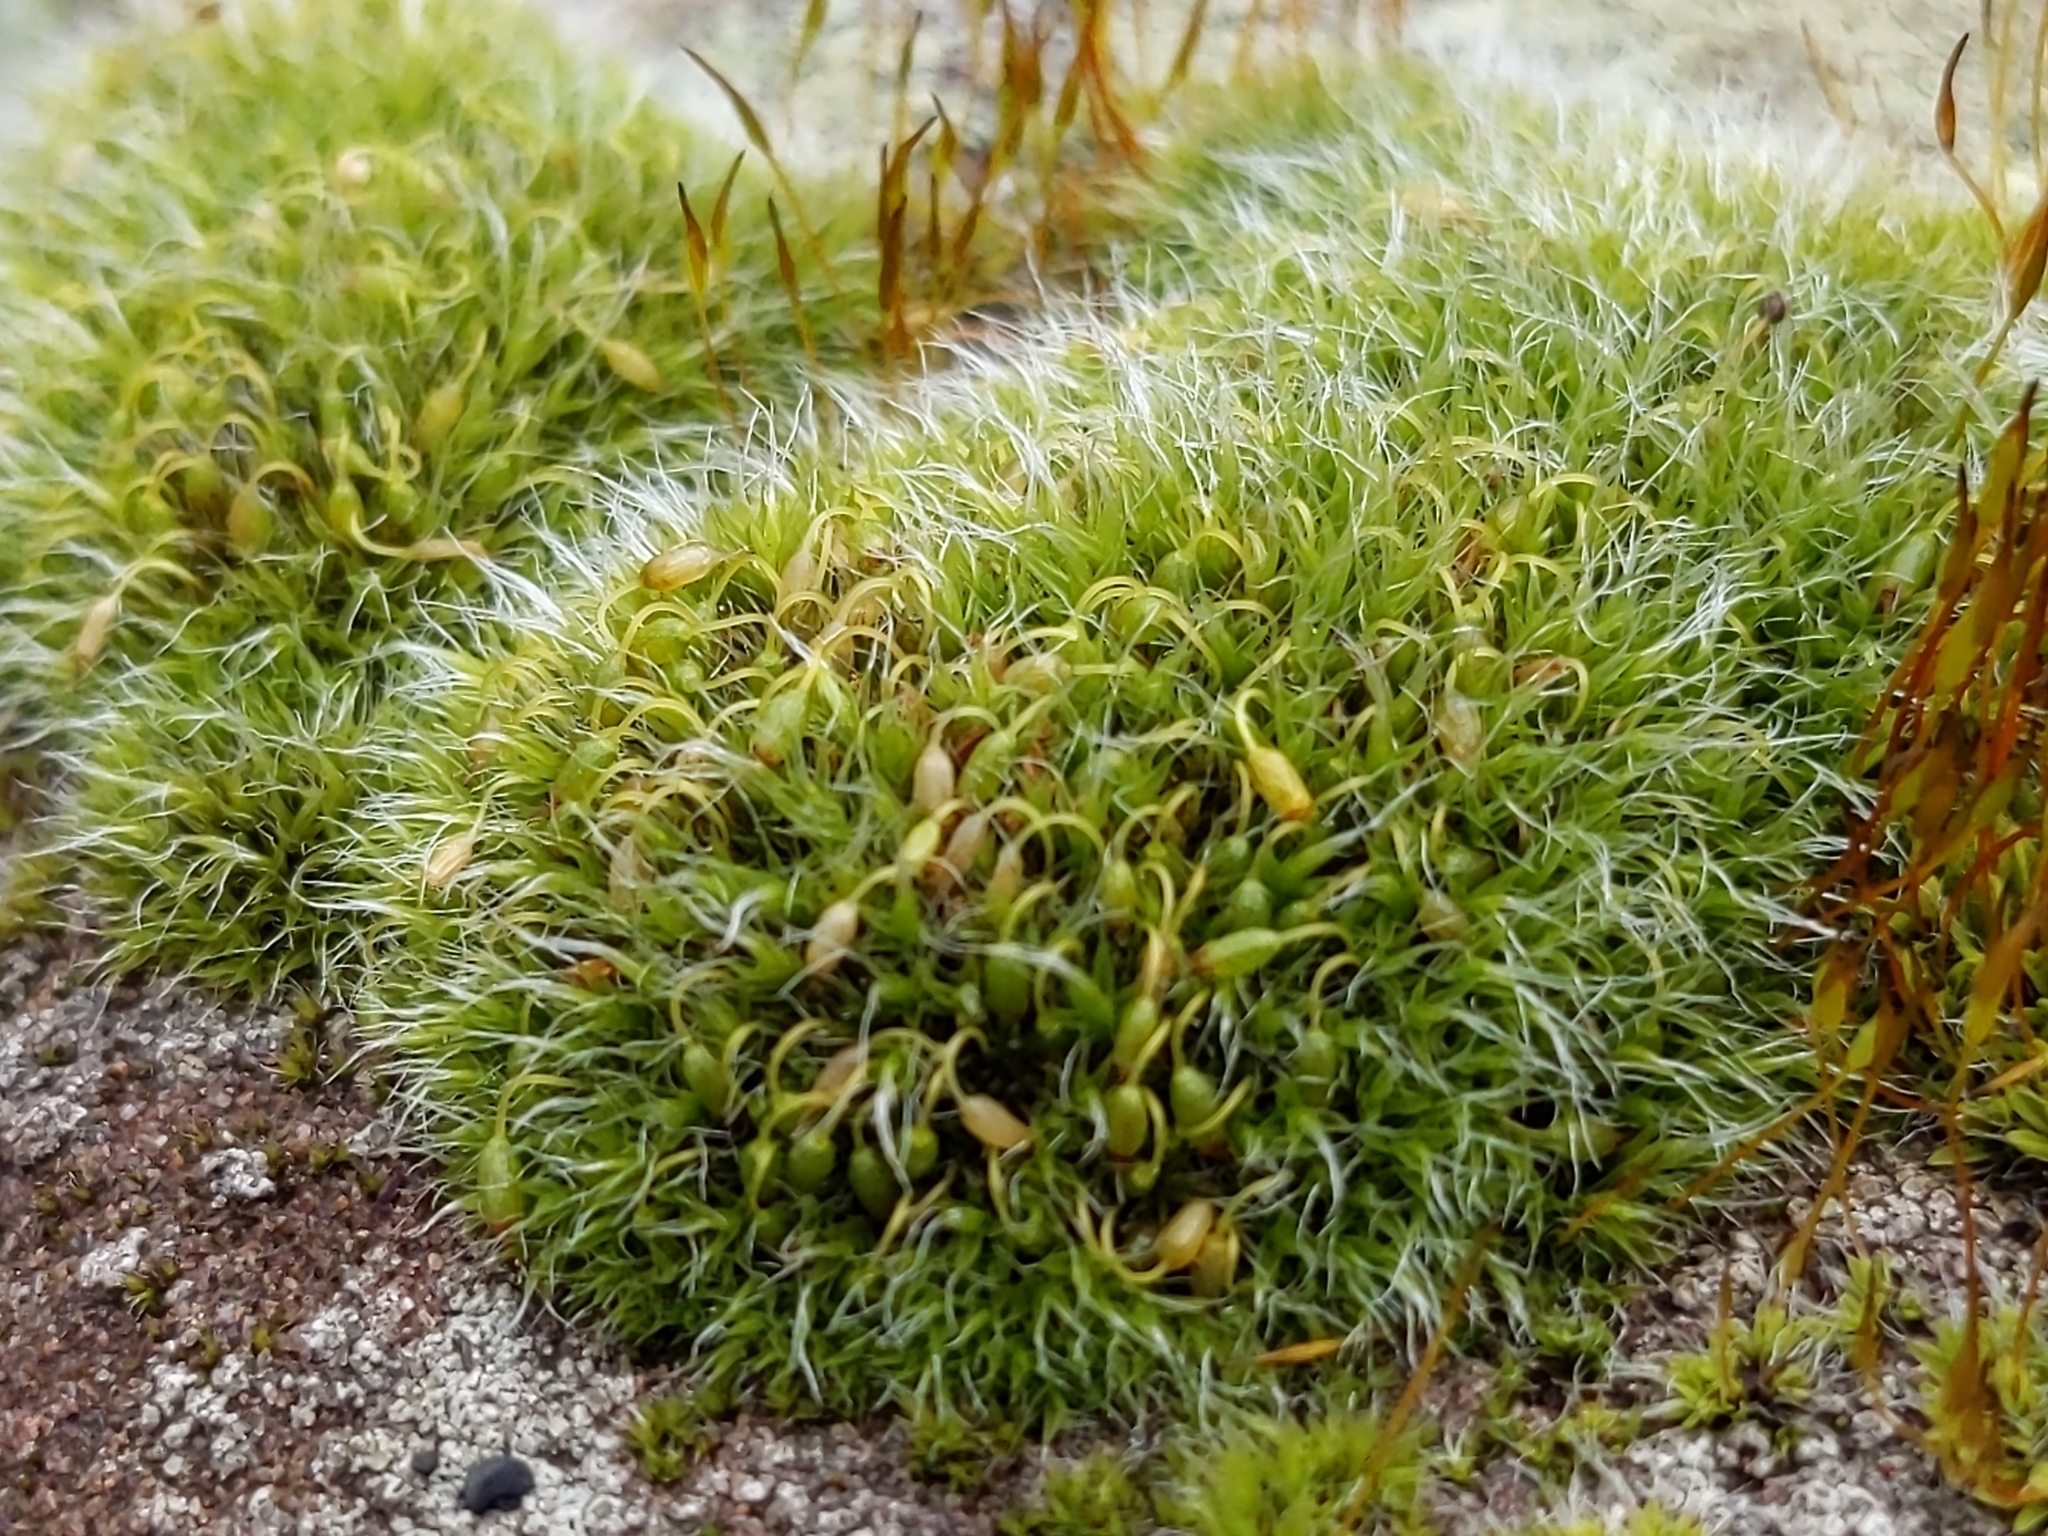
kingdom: Plantae
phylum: Bryophyta
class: Bryopsida
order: Grimmiales
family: Grimmiaceae
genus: Grimmia
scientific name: Grimmia pulvinata
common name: Grey-cushioned grimmia
